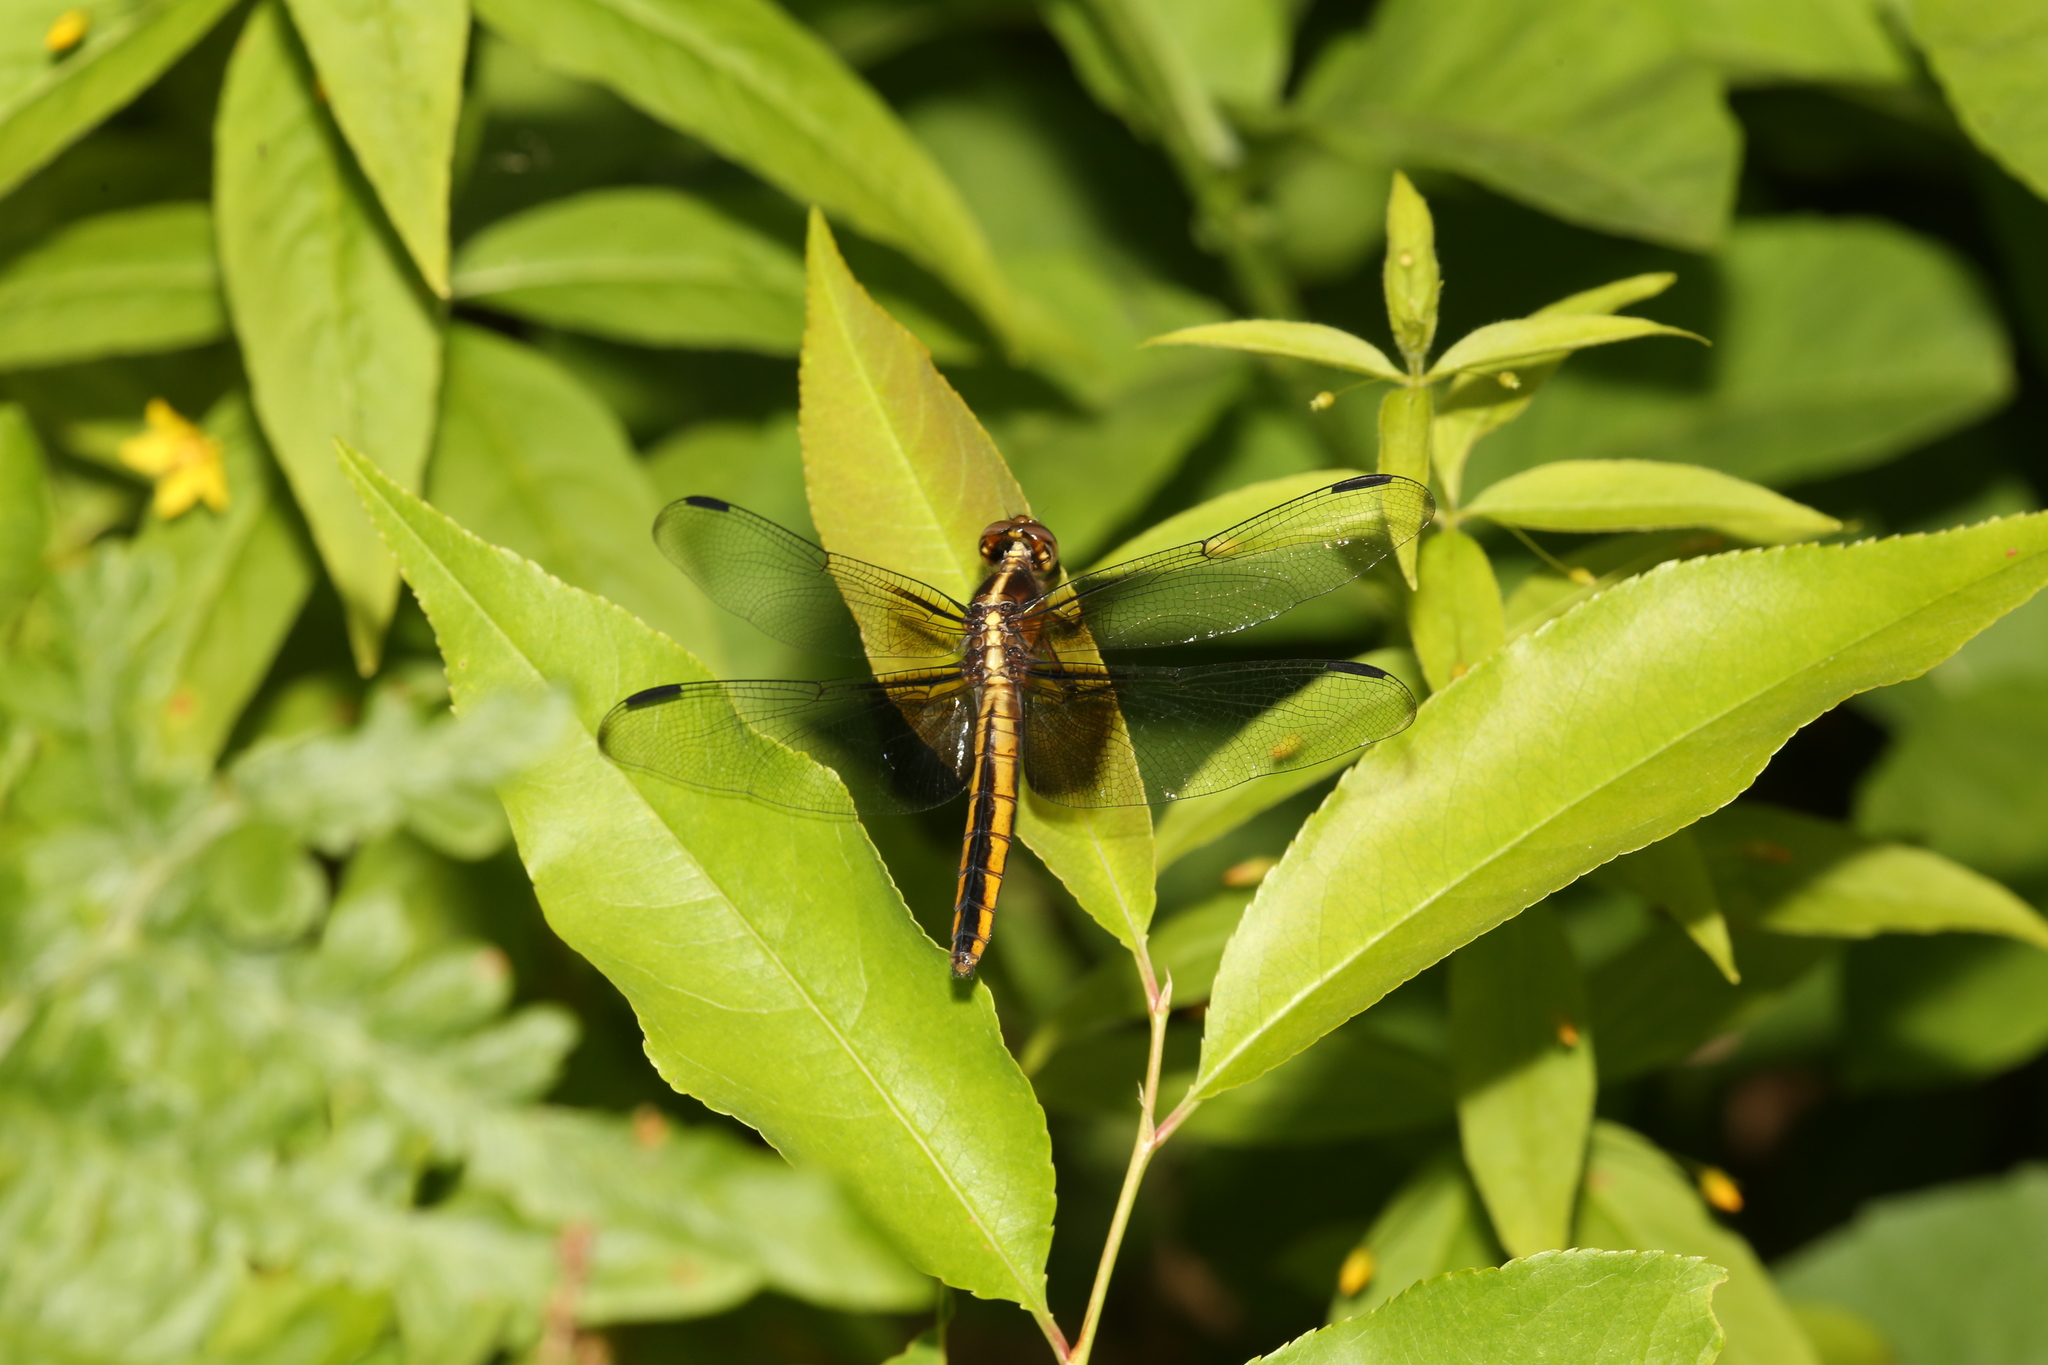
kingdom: Animalia
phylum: Arthropoda
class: Insecta
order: Odonata
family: Libellulidae
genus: Libellula
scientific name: Libellula luctuosa
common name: Widow skimmer
